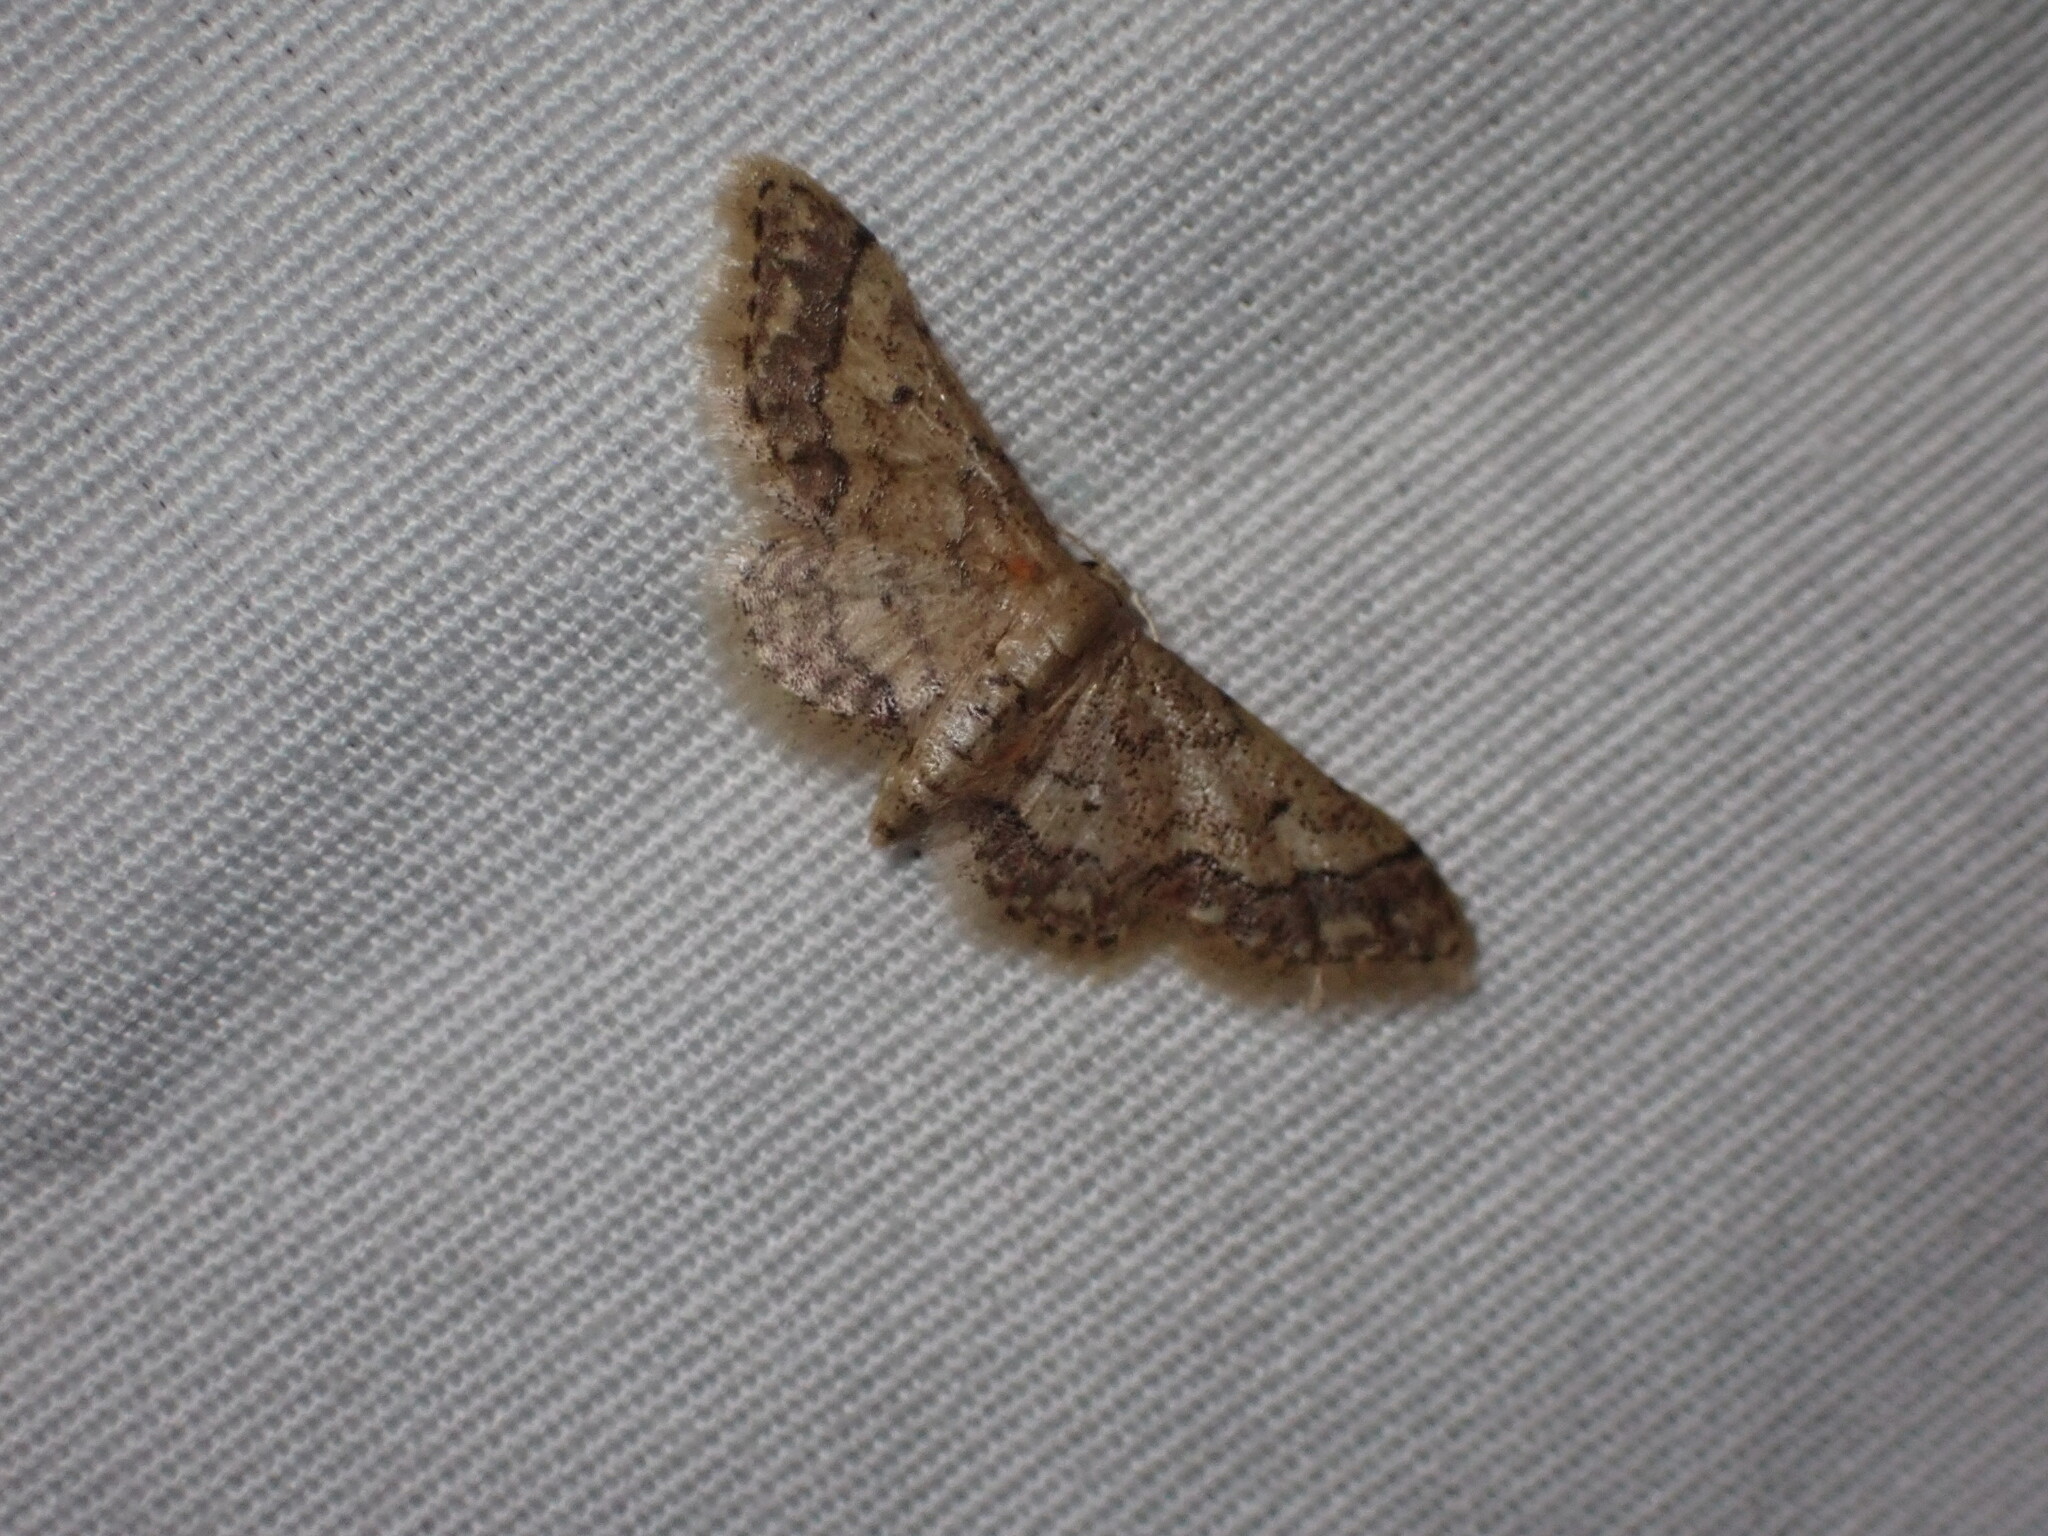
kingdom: Animalia
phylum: Arthropoda
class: Insecta
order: Lepidoptera
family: Geometridae
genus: Idaea
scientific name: Idaea celtima
